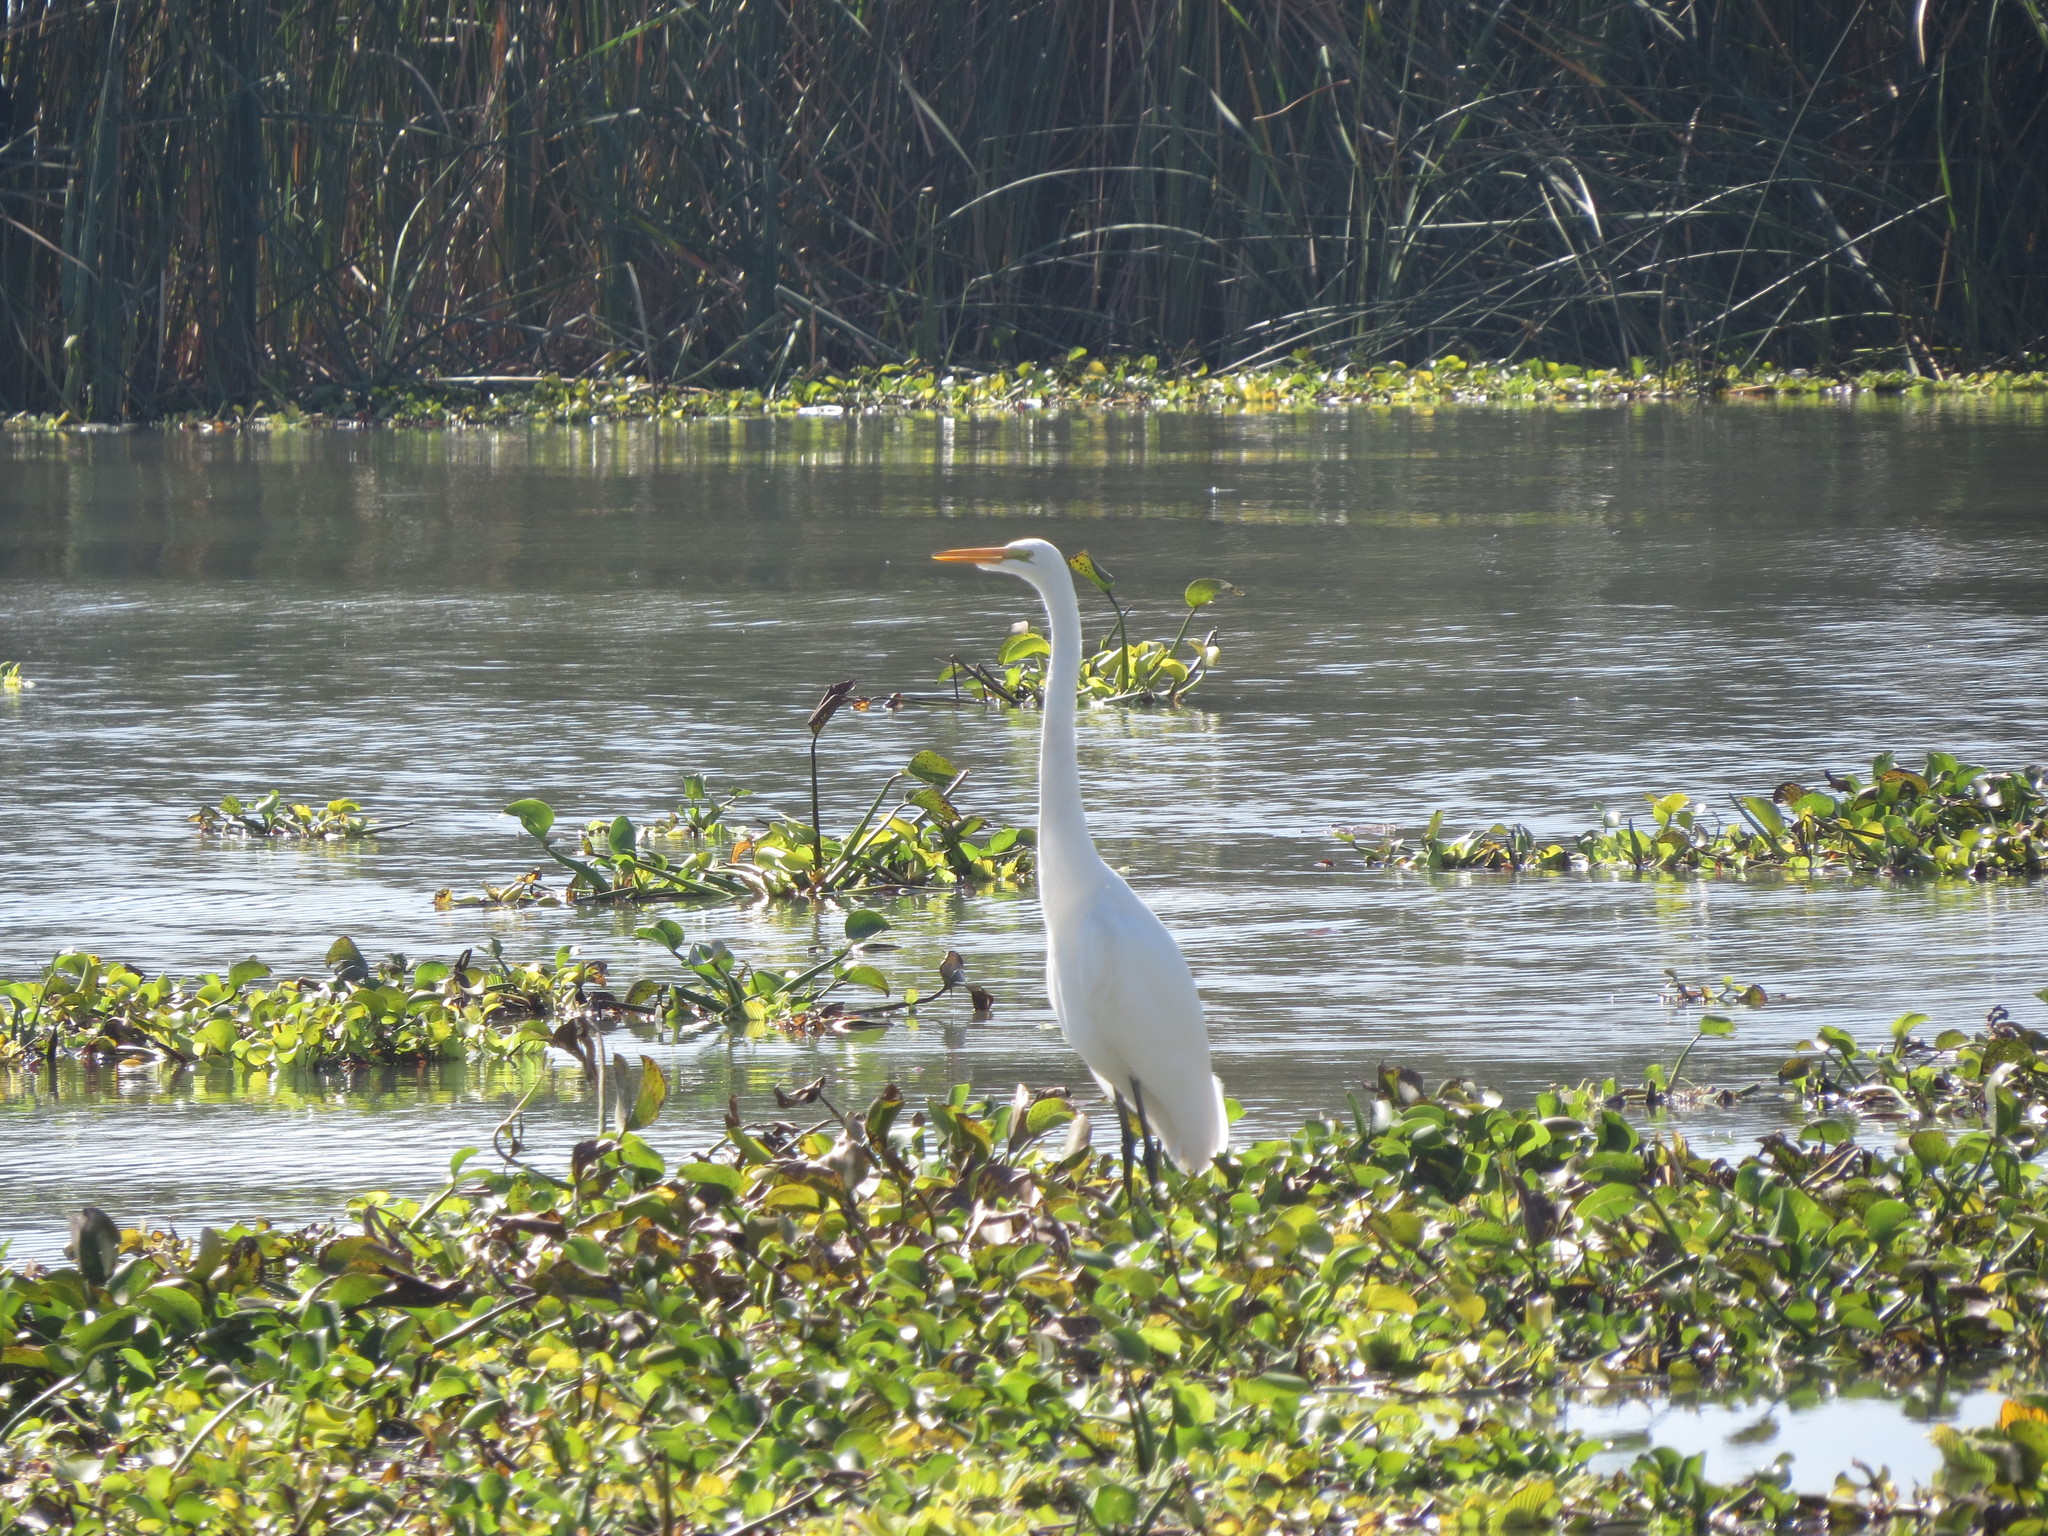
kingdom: Animalia
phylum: Chordata
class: Aves
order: Pelecaniformes
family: Ardeidae
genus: Ardea
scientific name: Ardea alba
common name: Great egret
